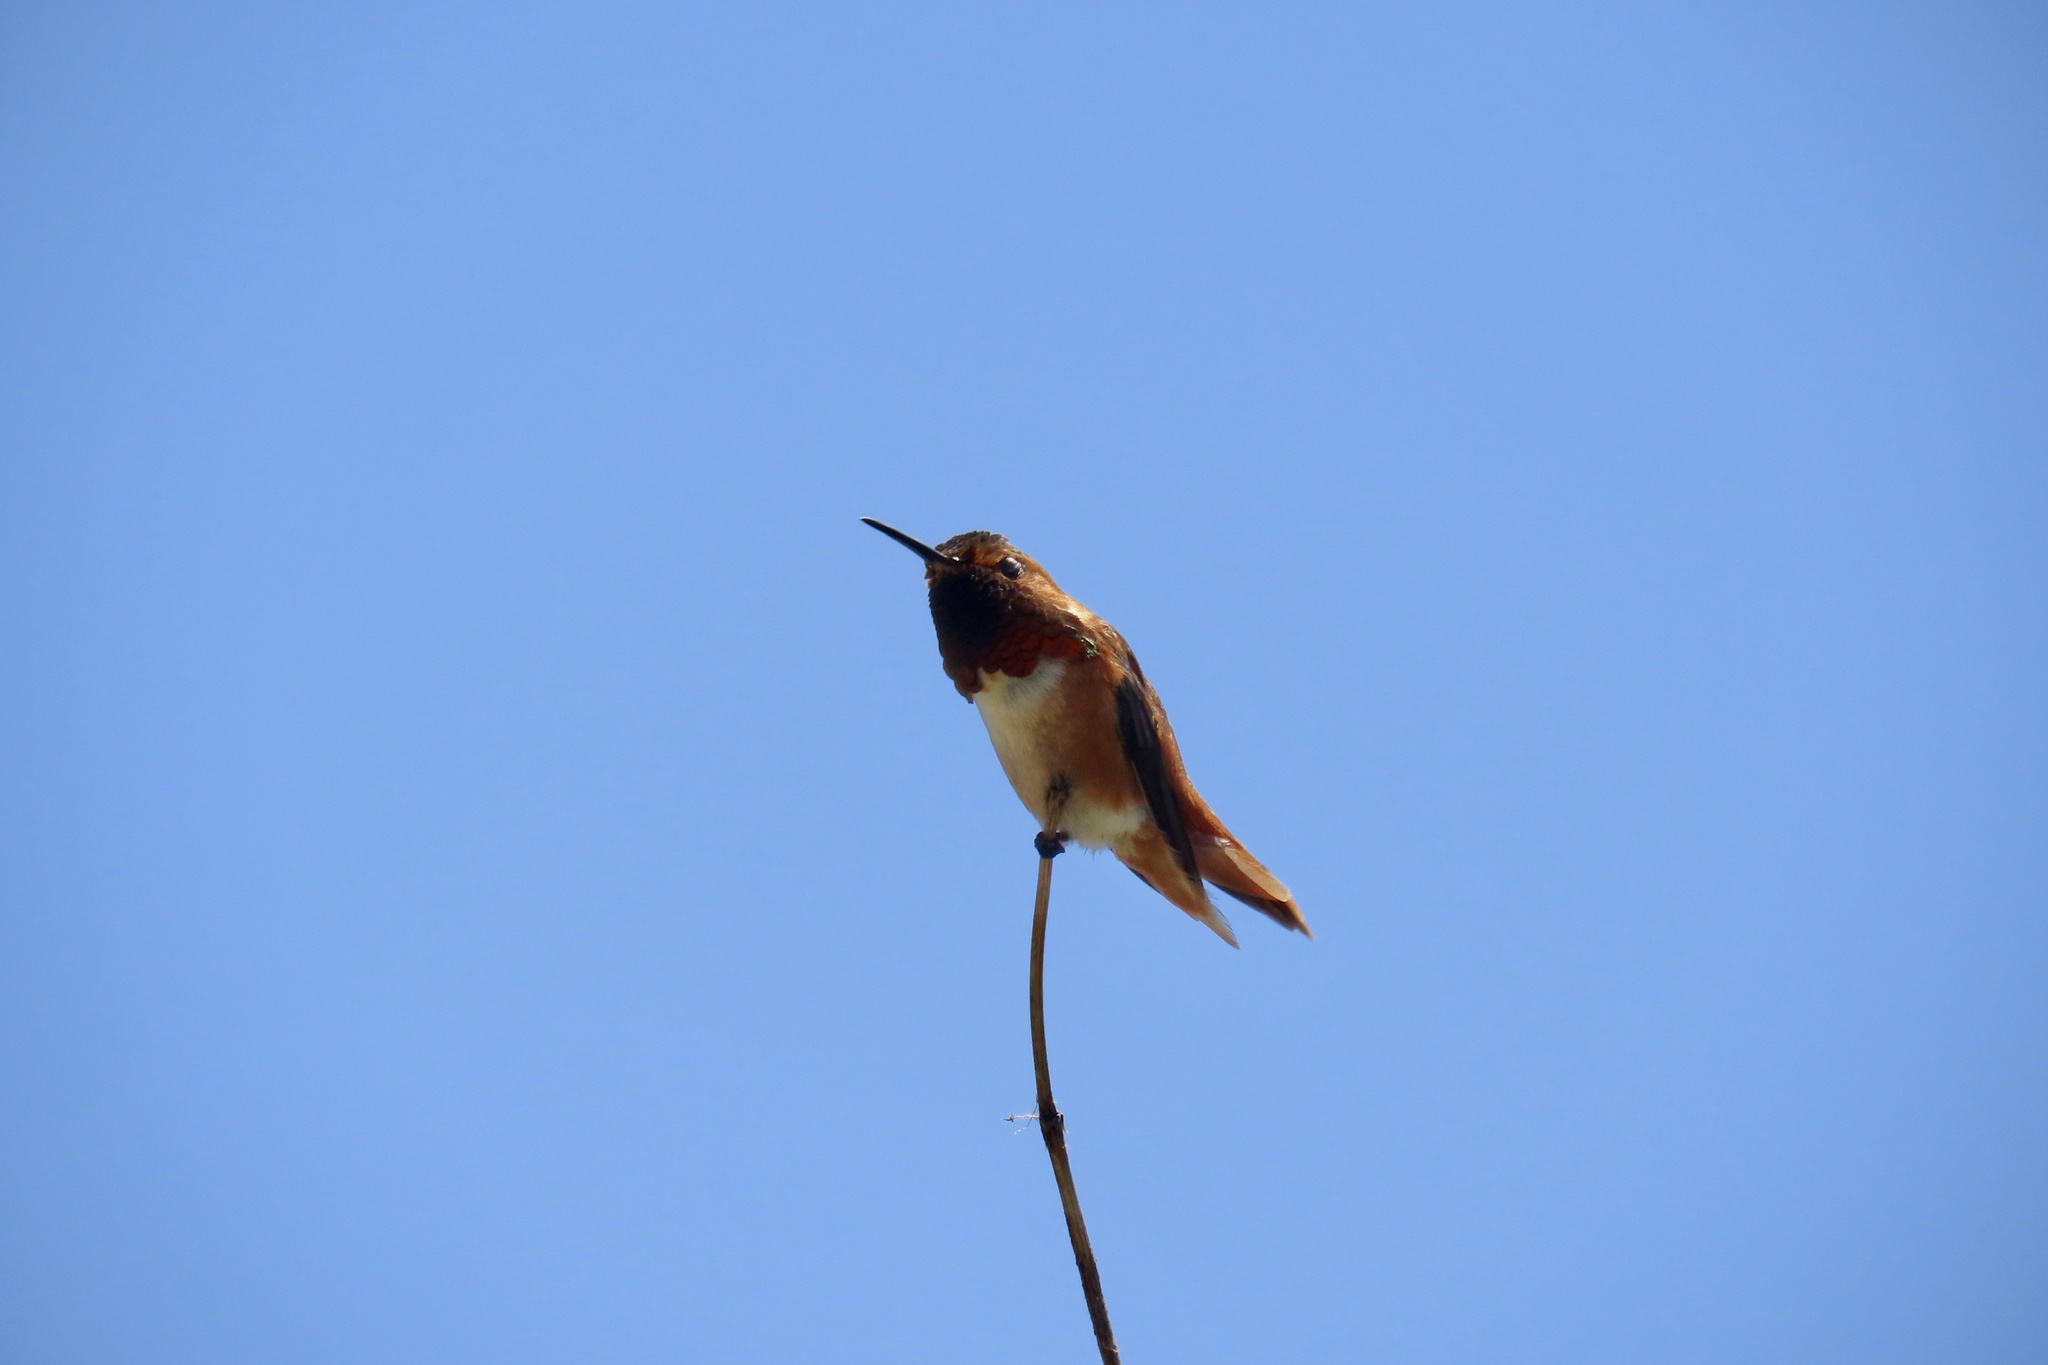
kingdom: Animalia
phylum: Chordata
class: Aves
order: Apodiformes
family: Trochilidae
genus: Selasphorus
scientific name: Selasphorus sasin
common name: Allen's hummingbird
